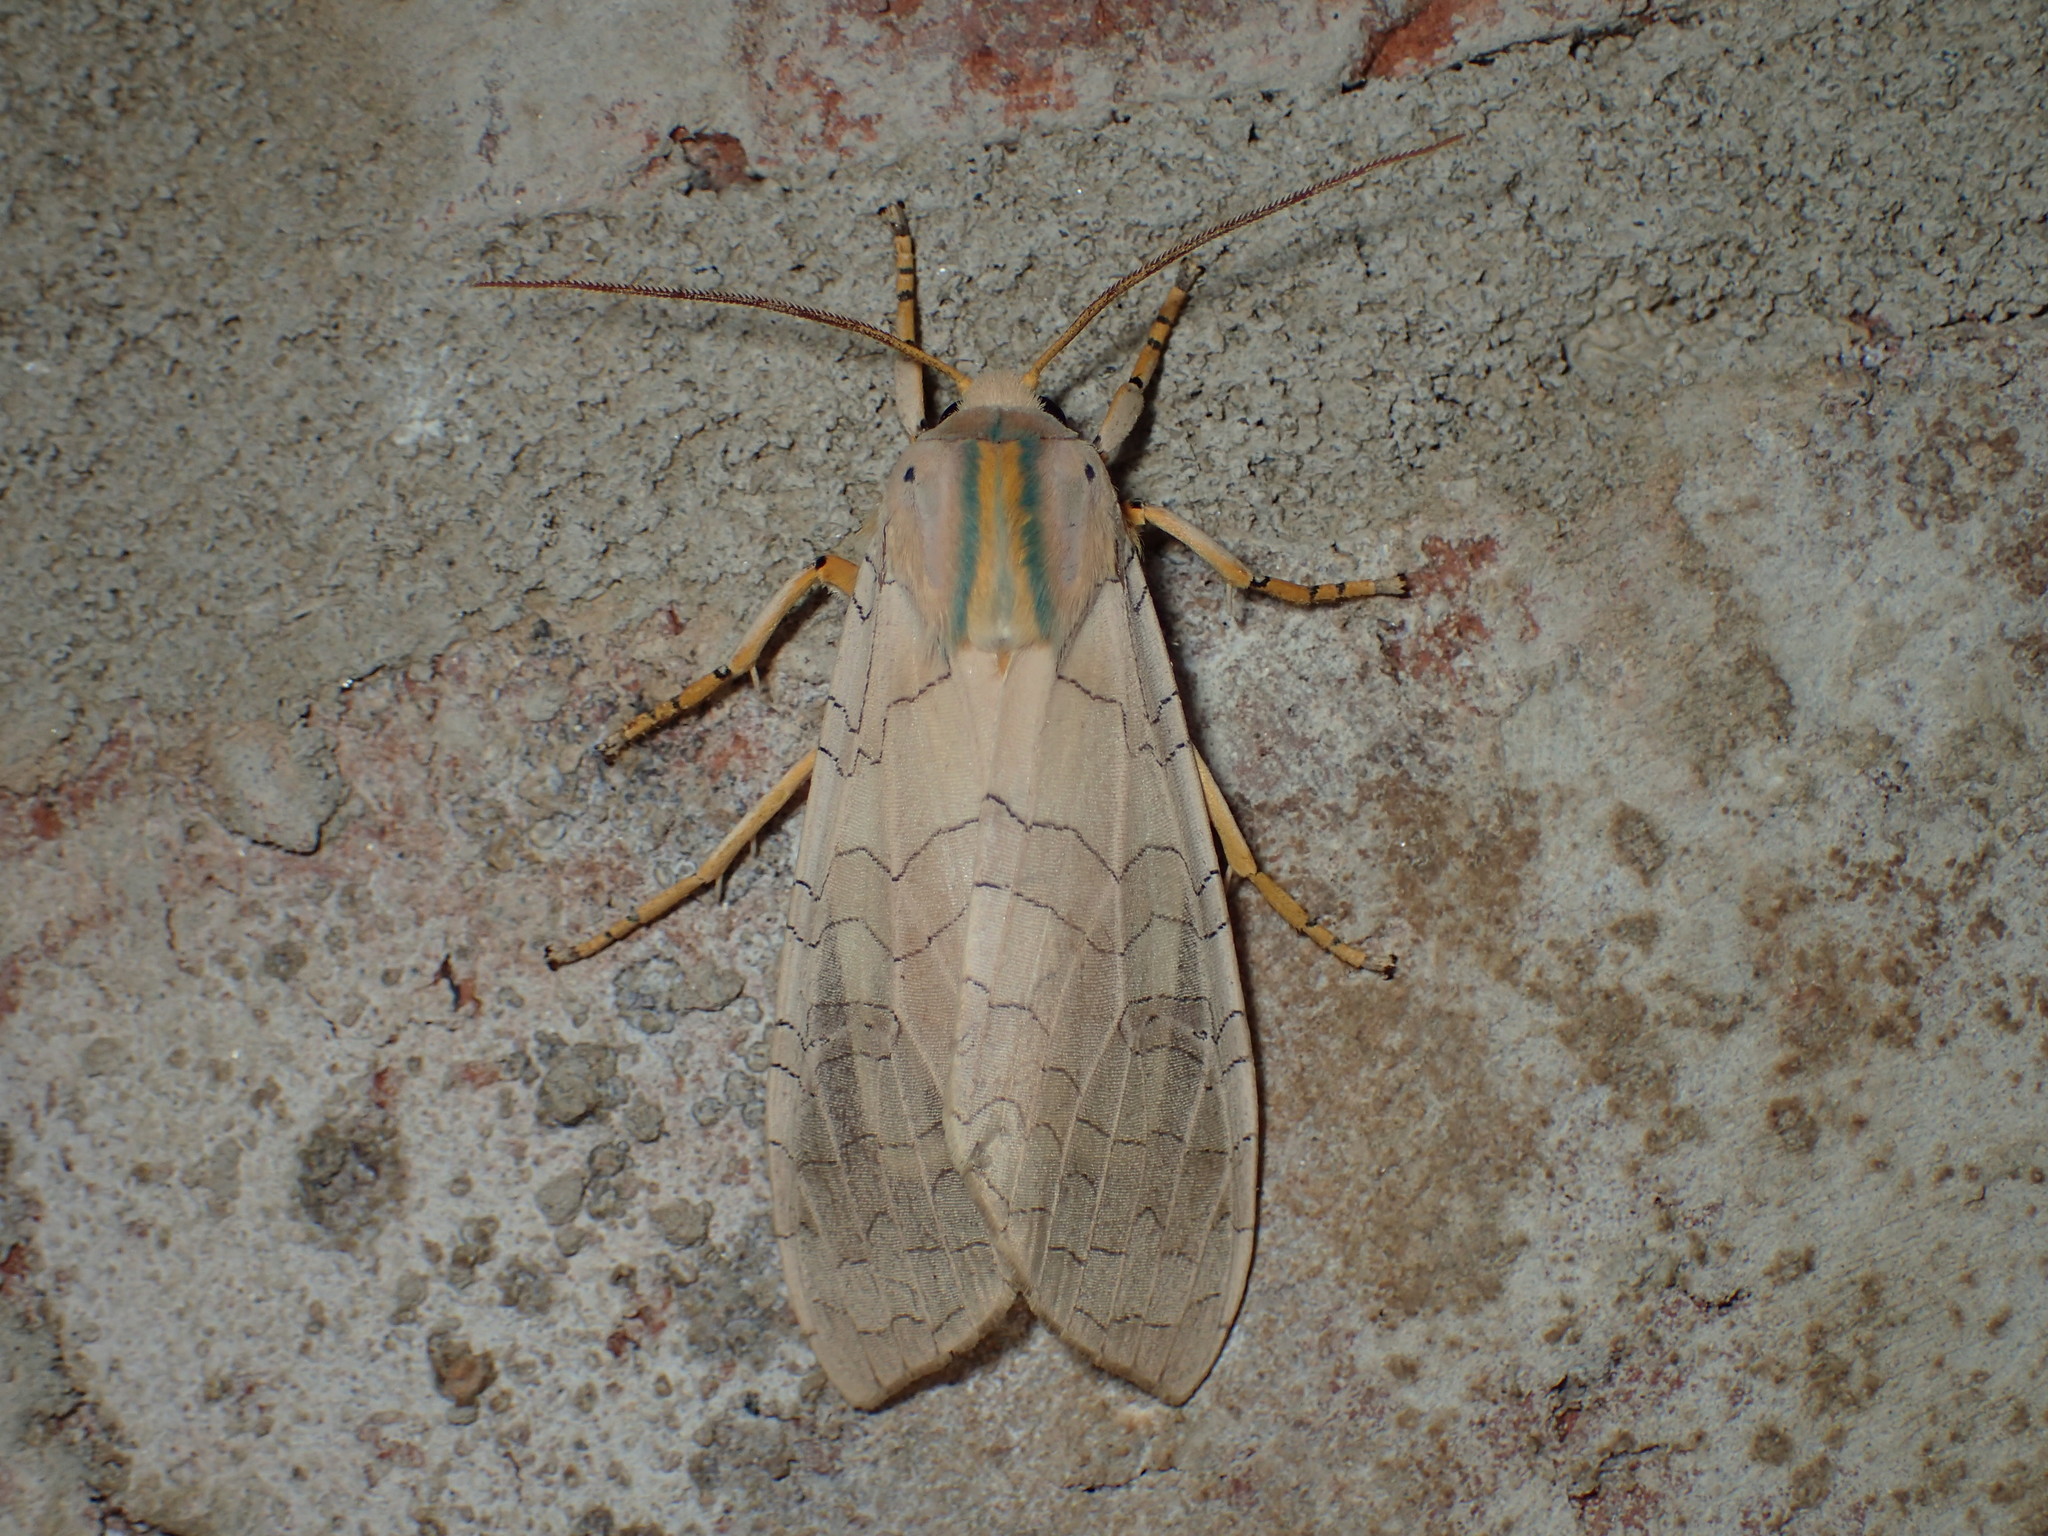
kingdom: Animalia
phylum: Arthropoda
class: Insecta
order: Lepidoptera
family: Erebidae
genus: Halysidota
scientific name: Halysidota
